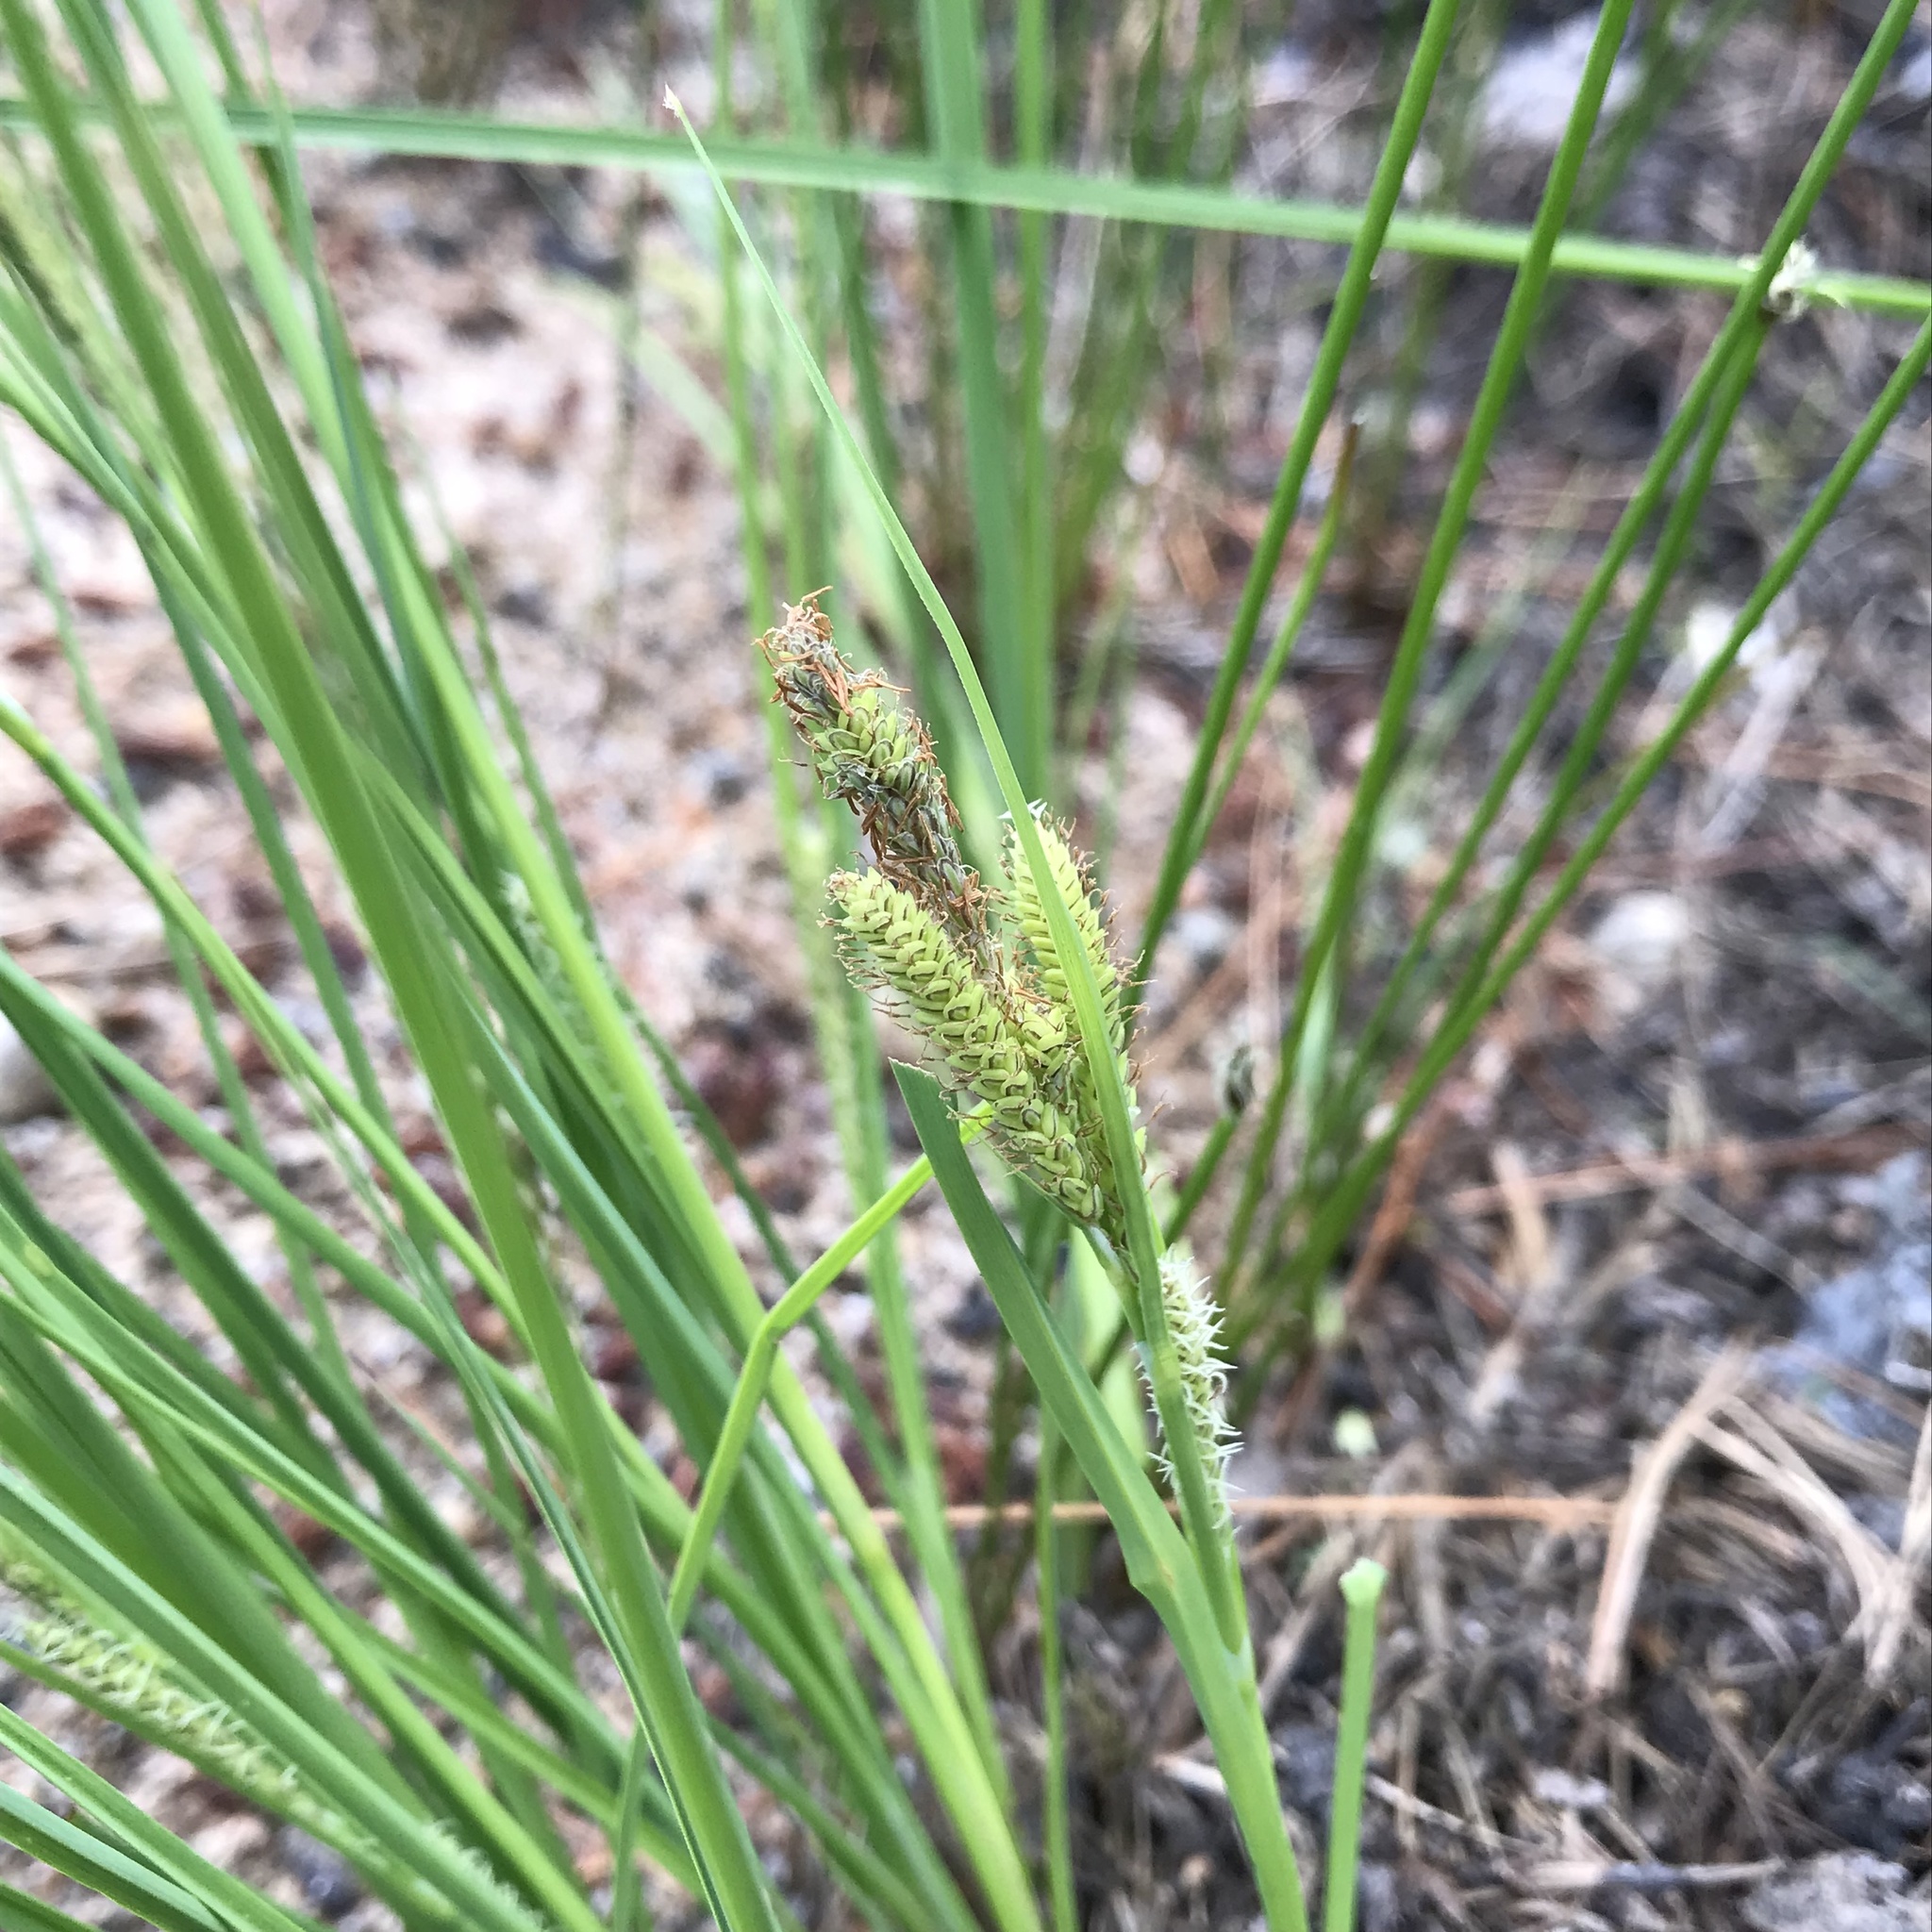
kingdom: Plantae
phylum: Tracheophyta
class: Liliopsida
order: Poales
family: Cyperaceae
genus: Carex
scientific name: Carex lenticularis
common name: Lakeshore sedge
